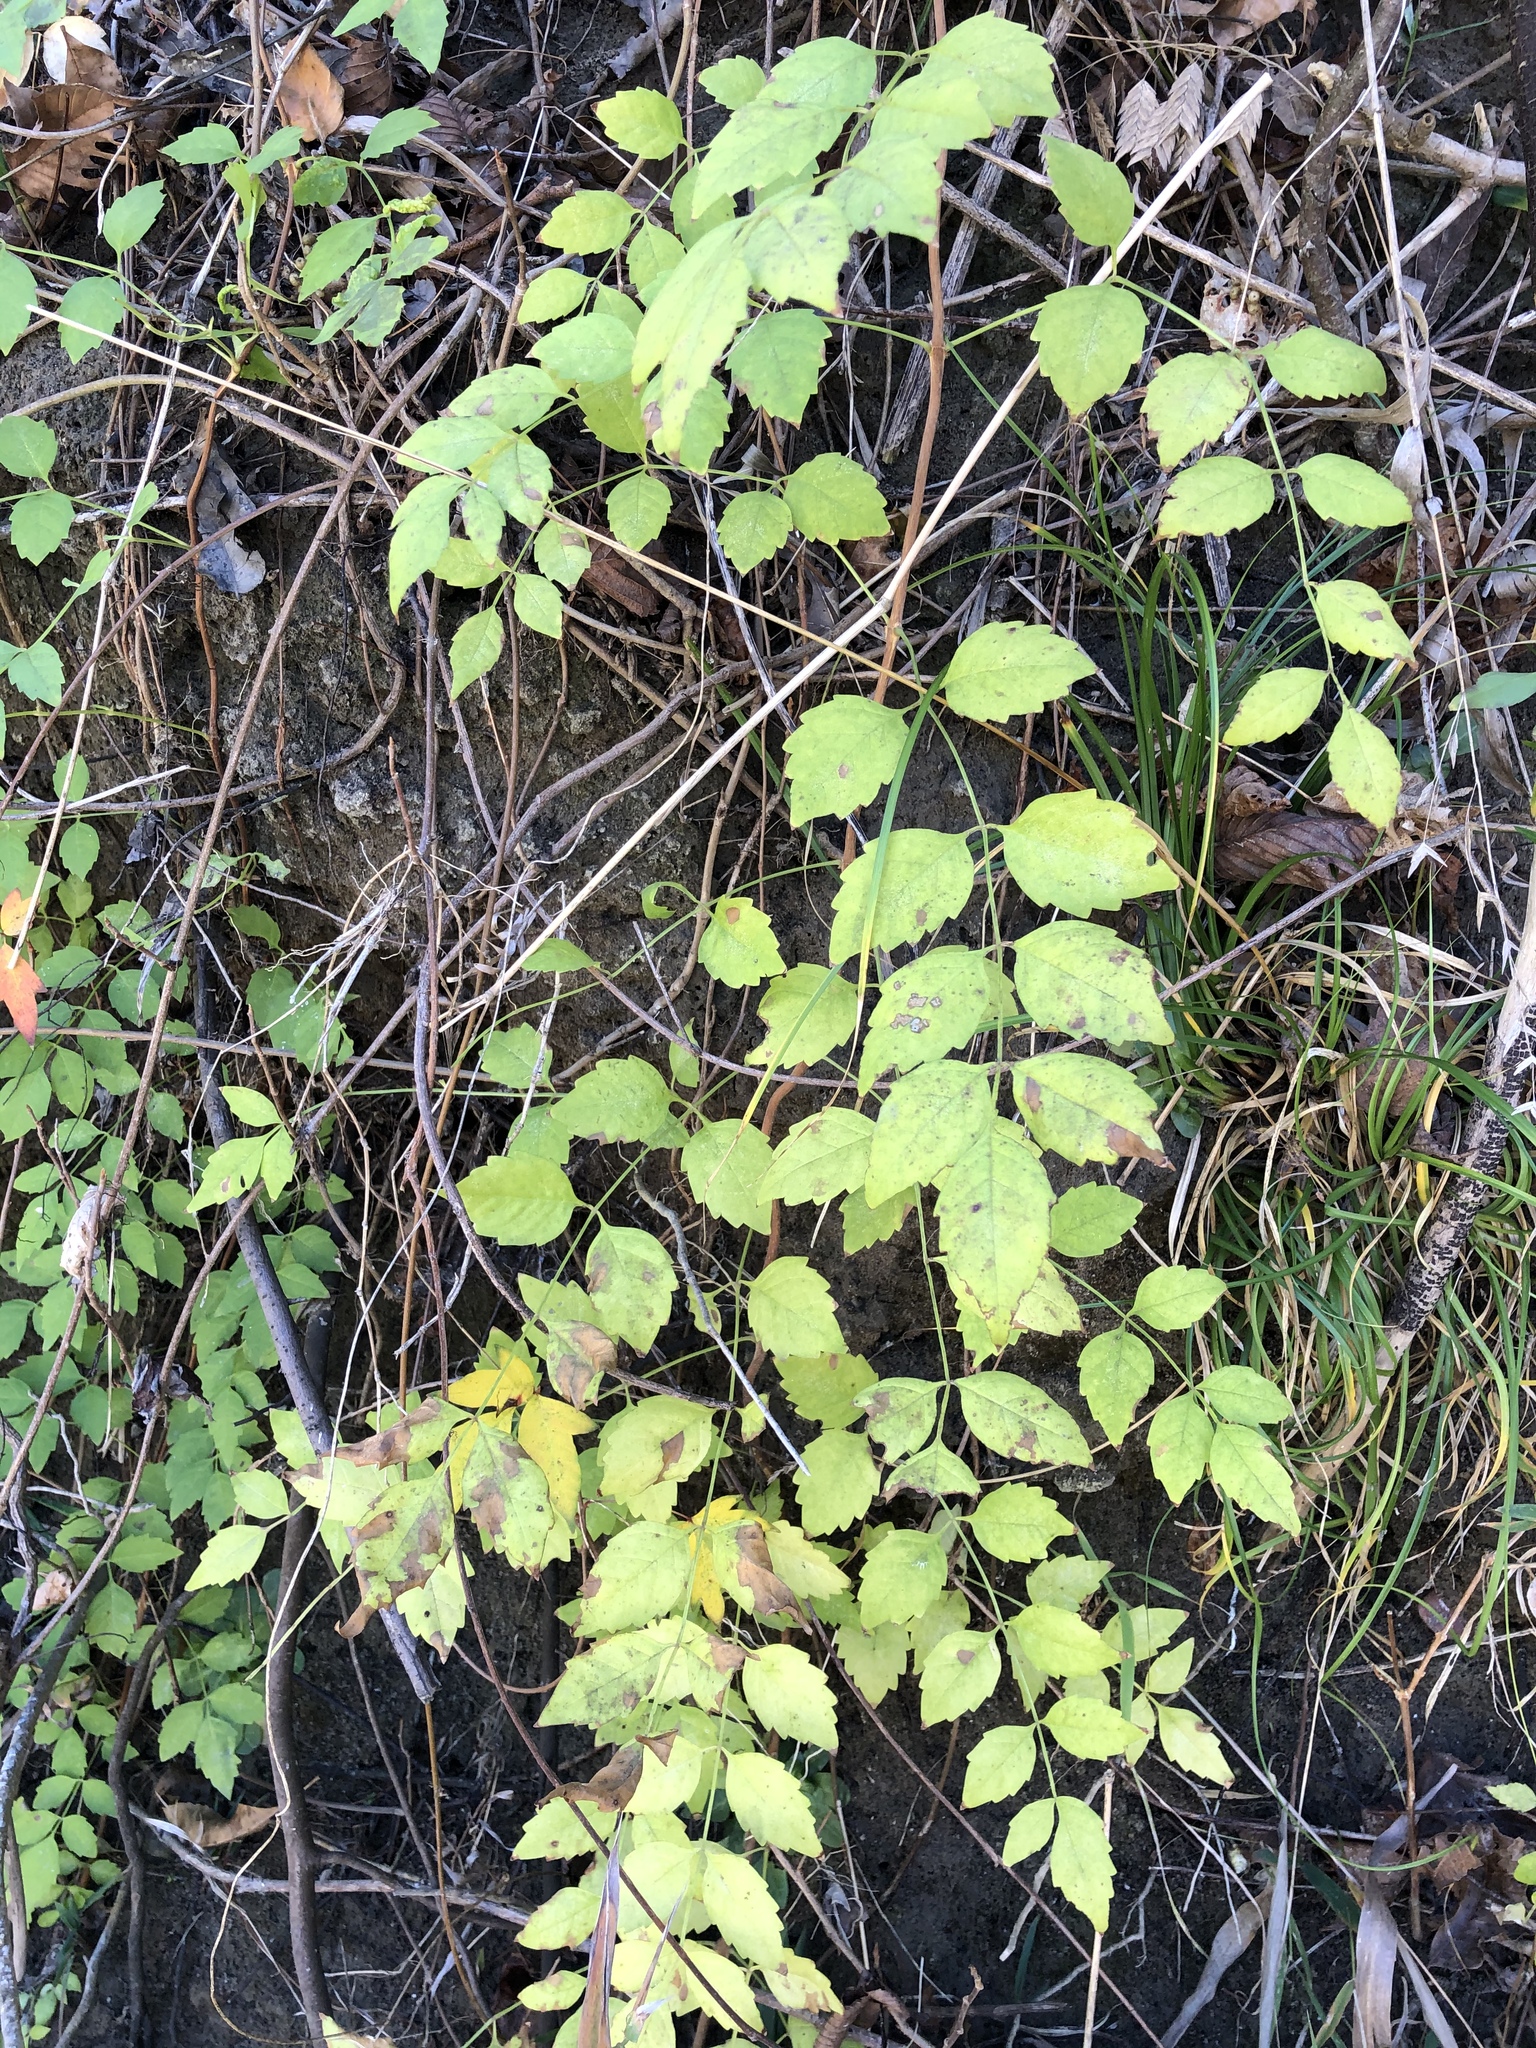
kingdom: Plantae
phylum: Tracheophyta
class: Magnoliopsida
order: Lamiales
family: Bignoniaceae
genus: Campsis
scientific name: Campsis radicans
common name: Trumpet-creeper
